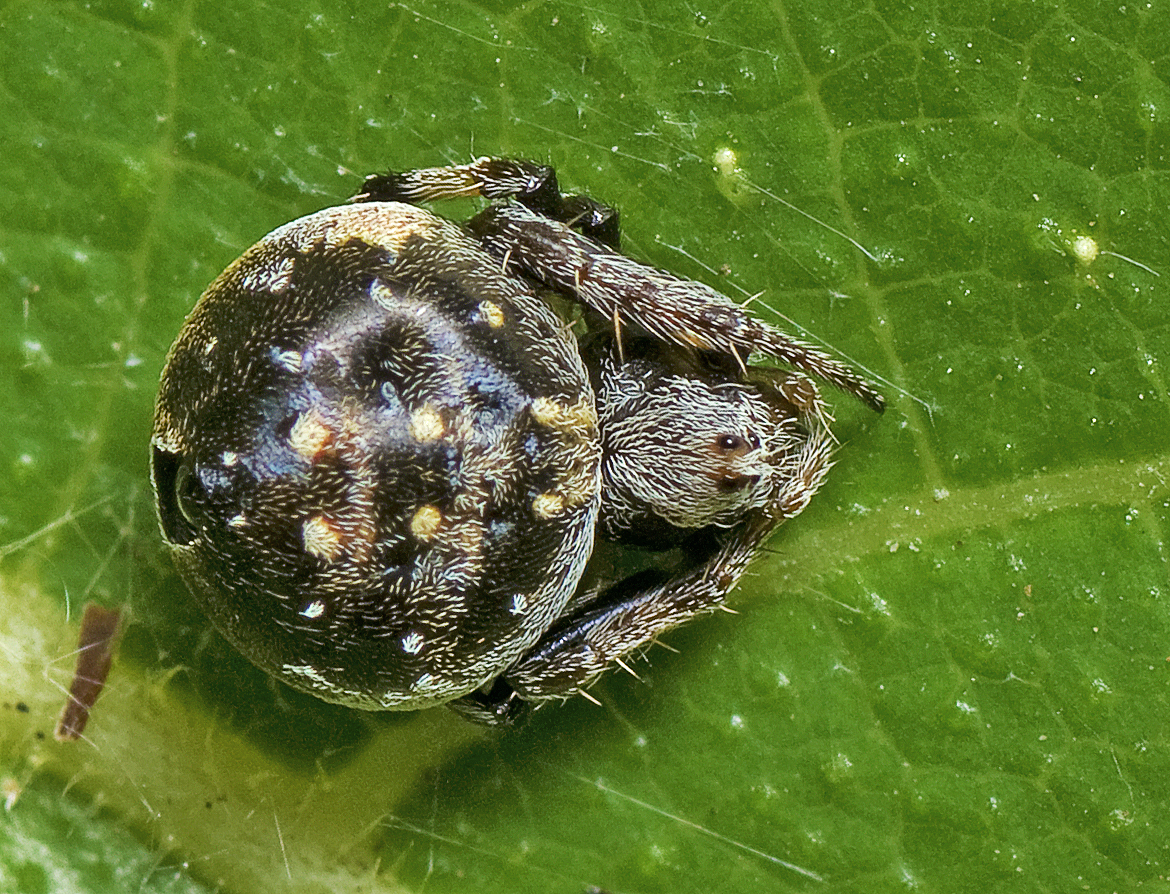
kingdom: Animalia
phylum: Arthropoda
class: Arachnida
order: Araneae
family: Araneidae
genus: Araneus
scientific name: Araneus rotundulus
